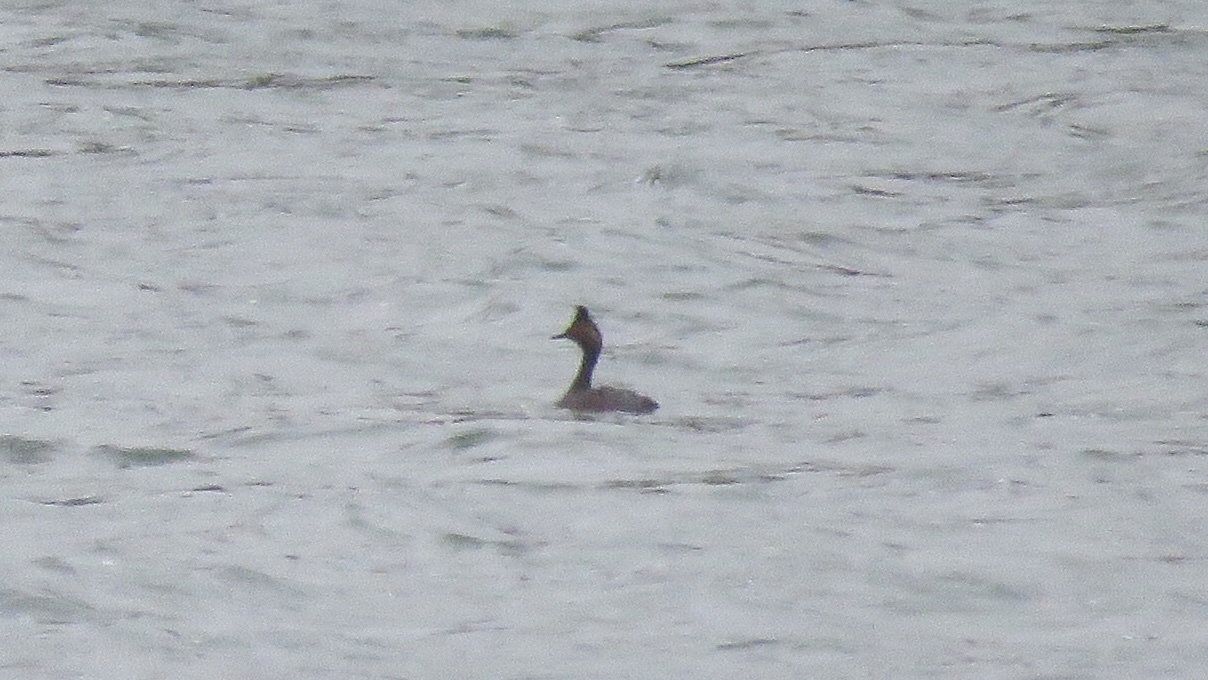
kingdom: Animalia
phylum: Chordata
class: Aves
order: Podicipediformes
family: Podicipedidae
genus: Podiceps
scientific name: Podiceps nigricollis
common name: Black-necked grebe
